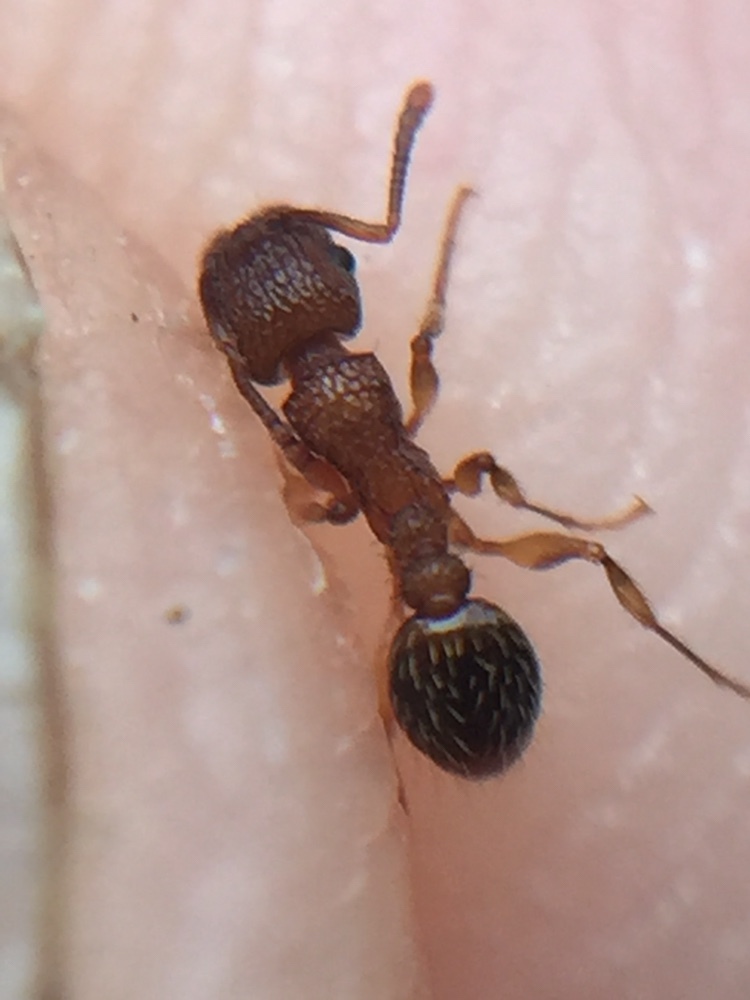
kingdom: Animalia
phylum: Arthropoda
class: Insecta
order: Hymenoptera
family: Formicidae
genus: Tetramorium
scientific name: Tetramorium bicarinatum
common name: Guinea ant
